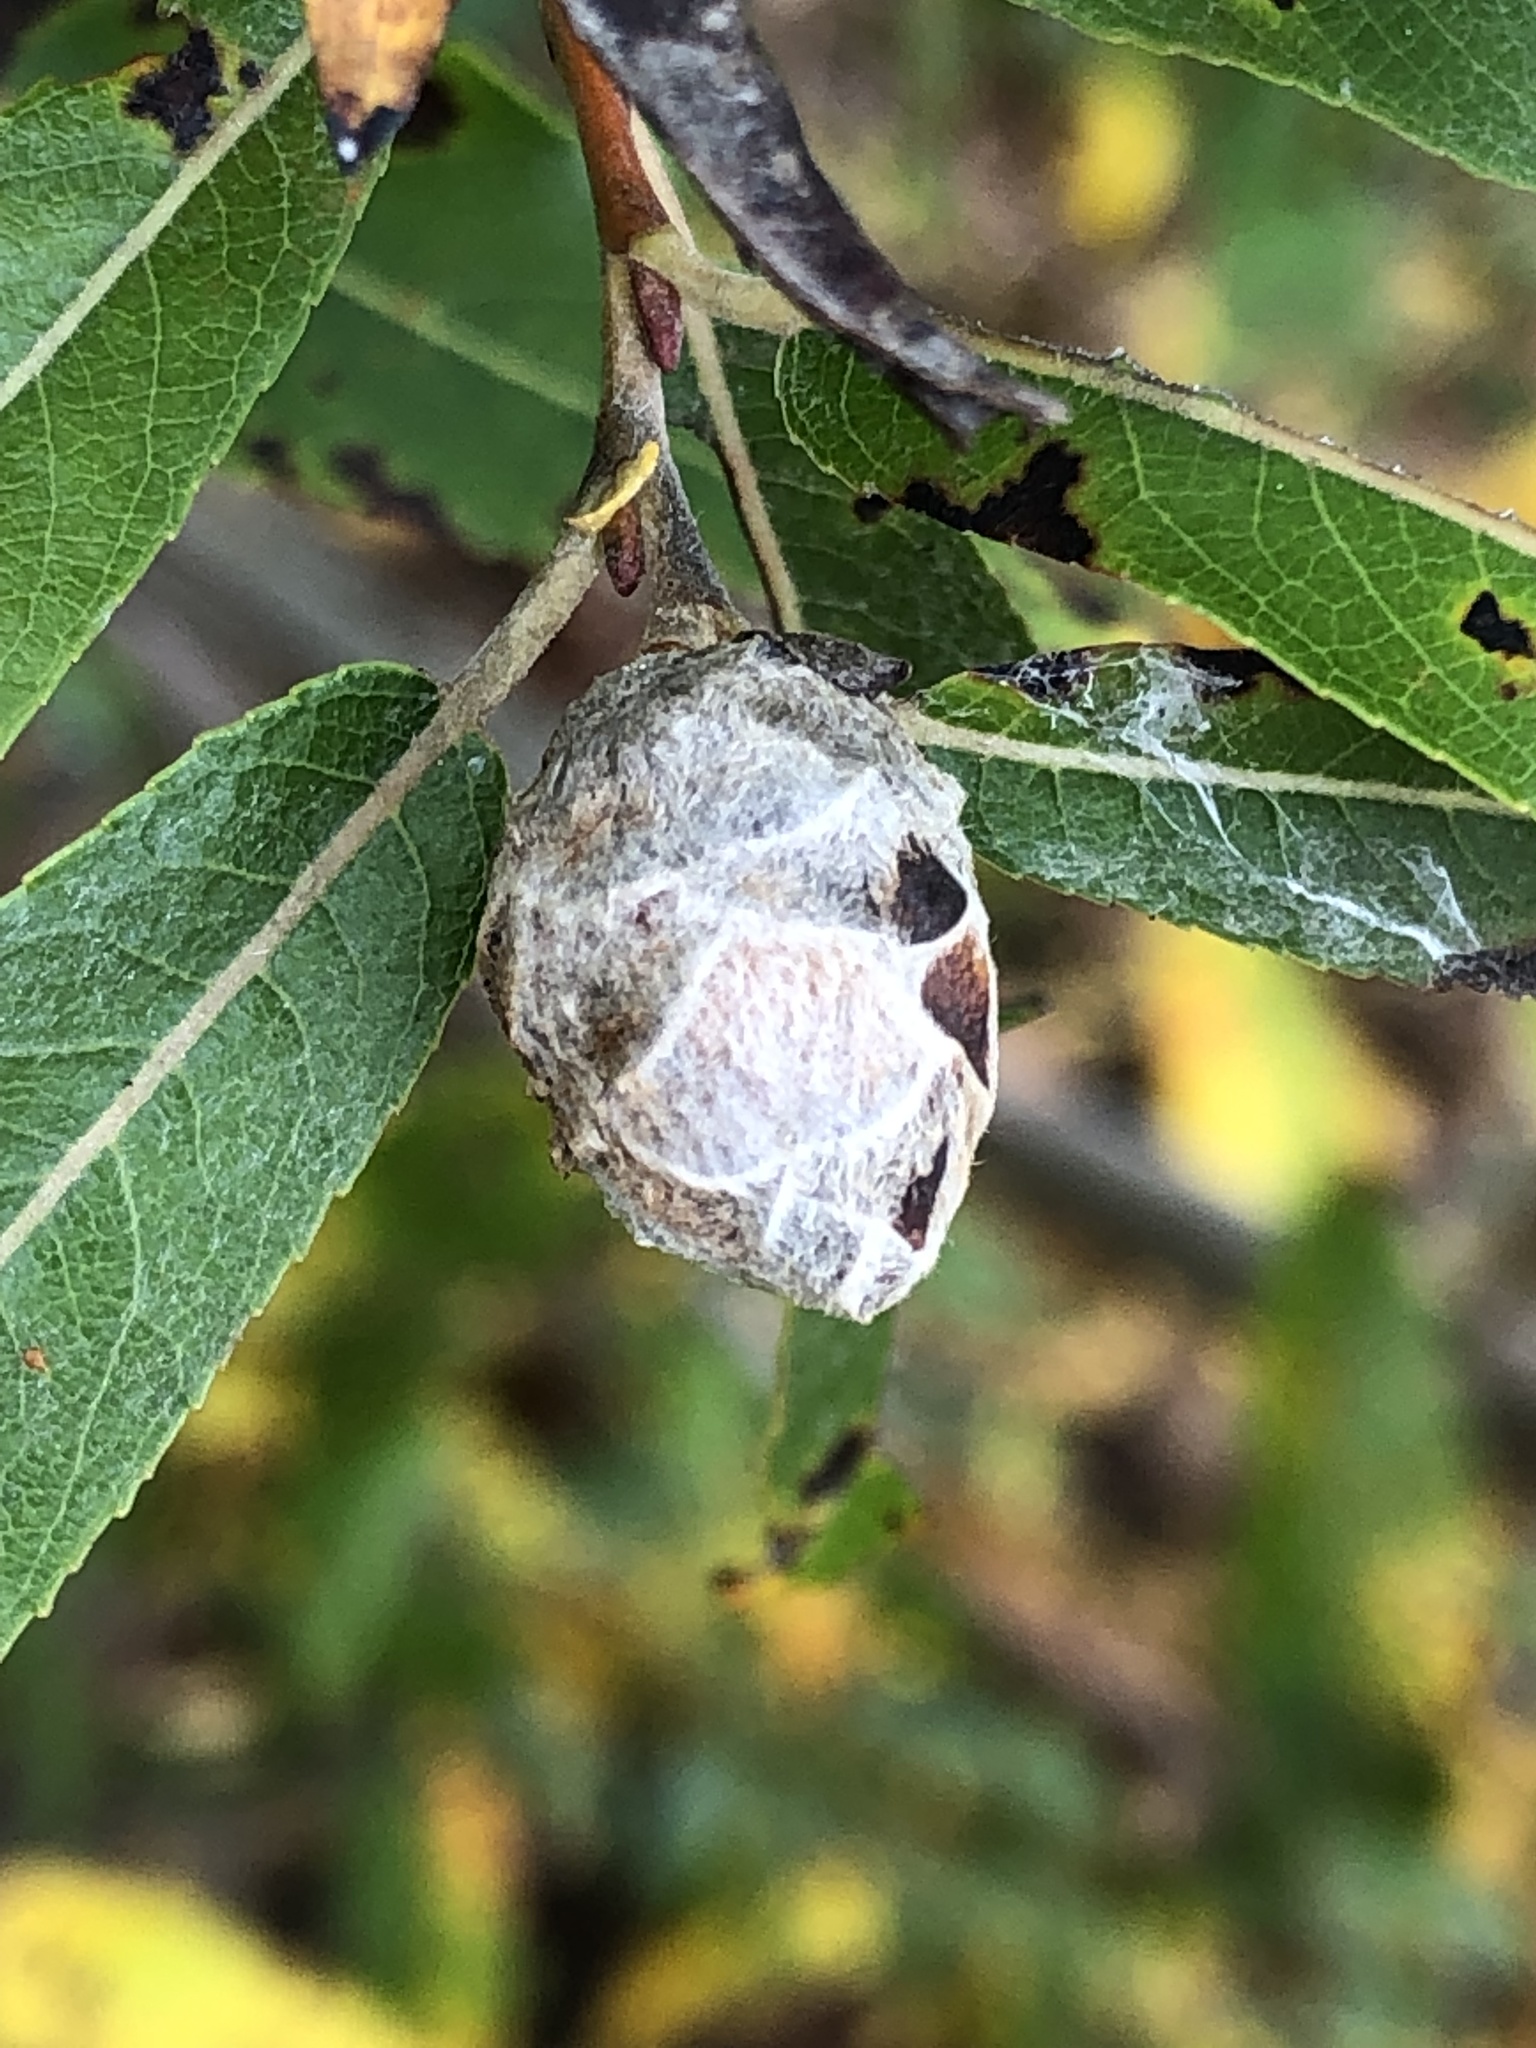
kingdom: Animalia
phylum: Arthropoda
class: Insecta
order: Diptera
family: Cecidomyiidae
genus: Rabdophaga
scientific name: Rabdophaga strobiloides
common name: Willow pinecone gall midge
